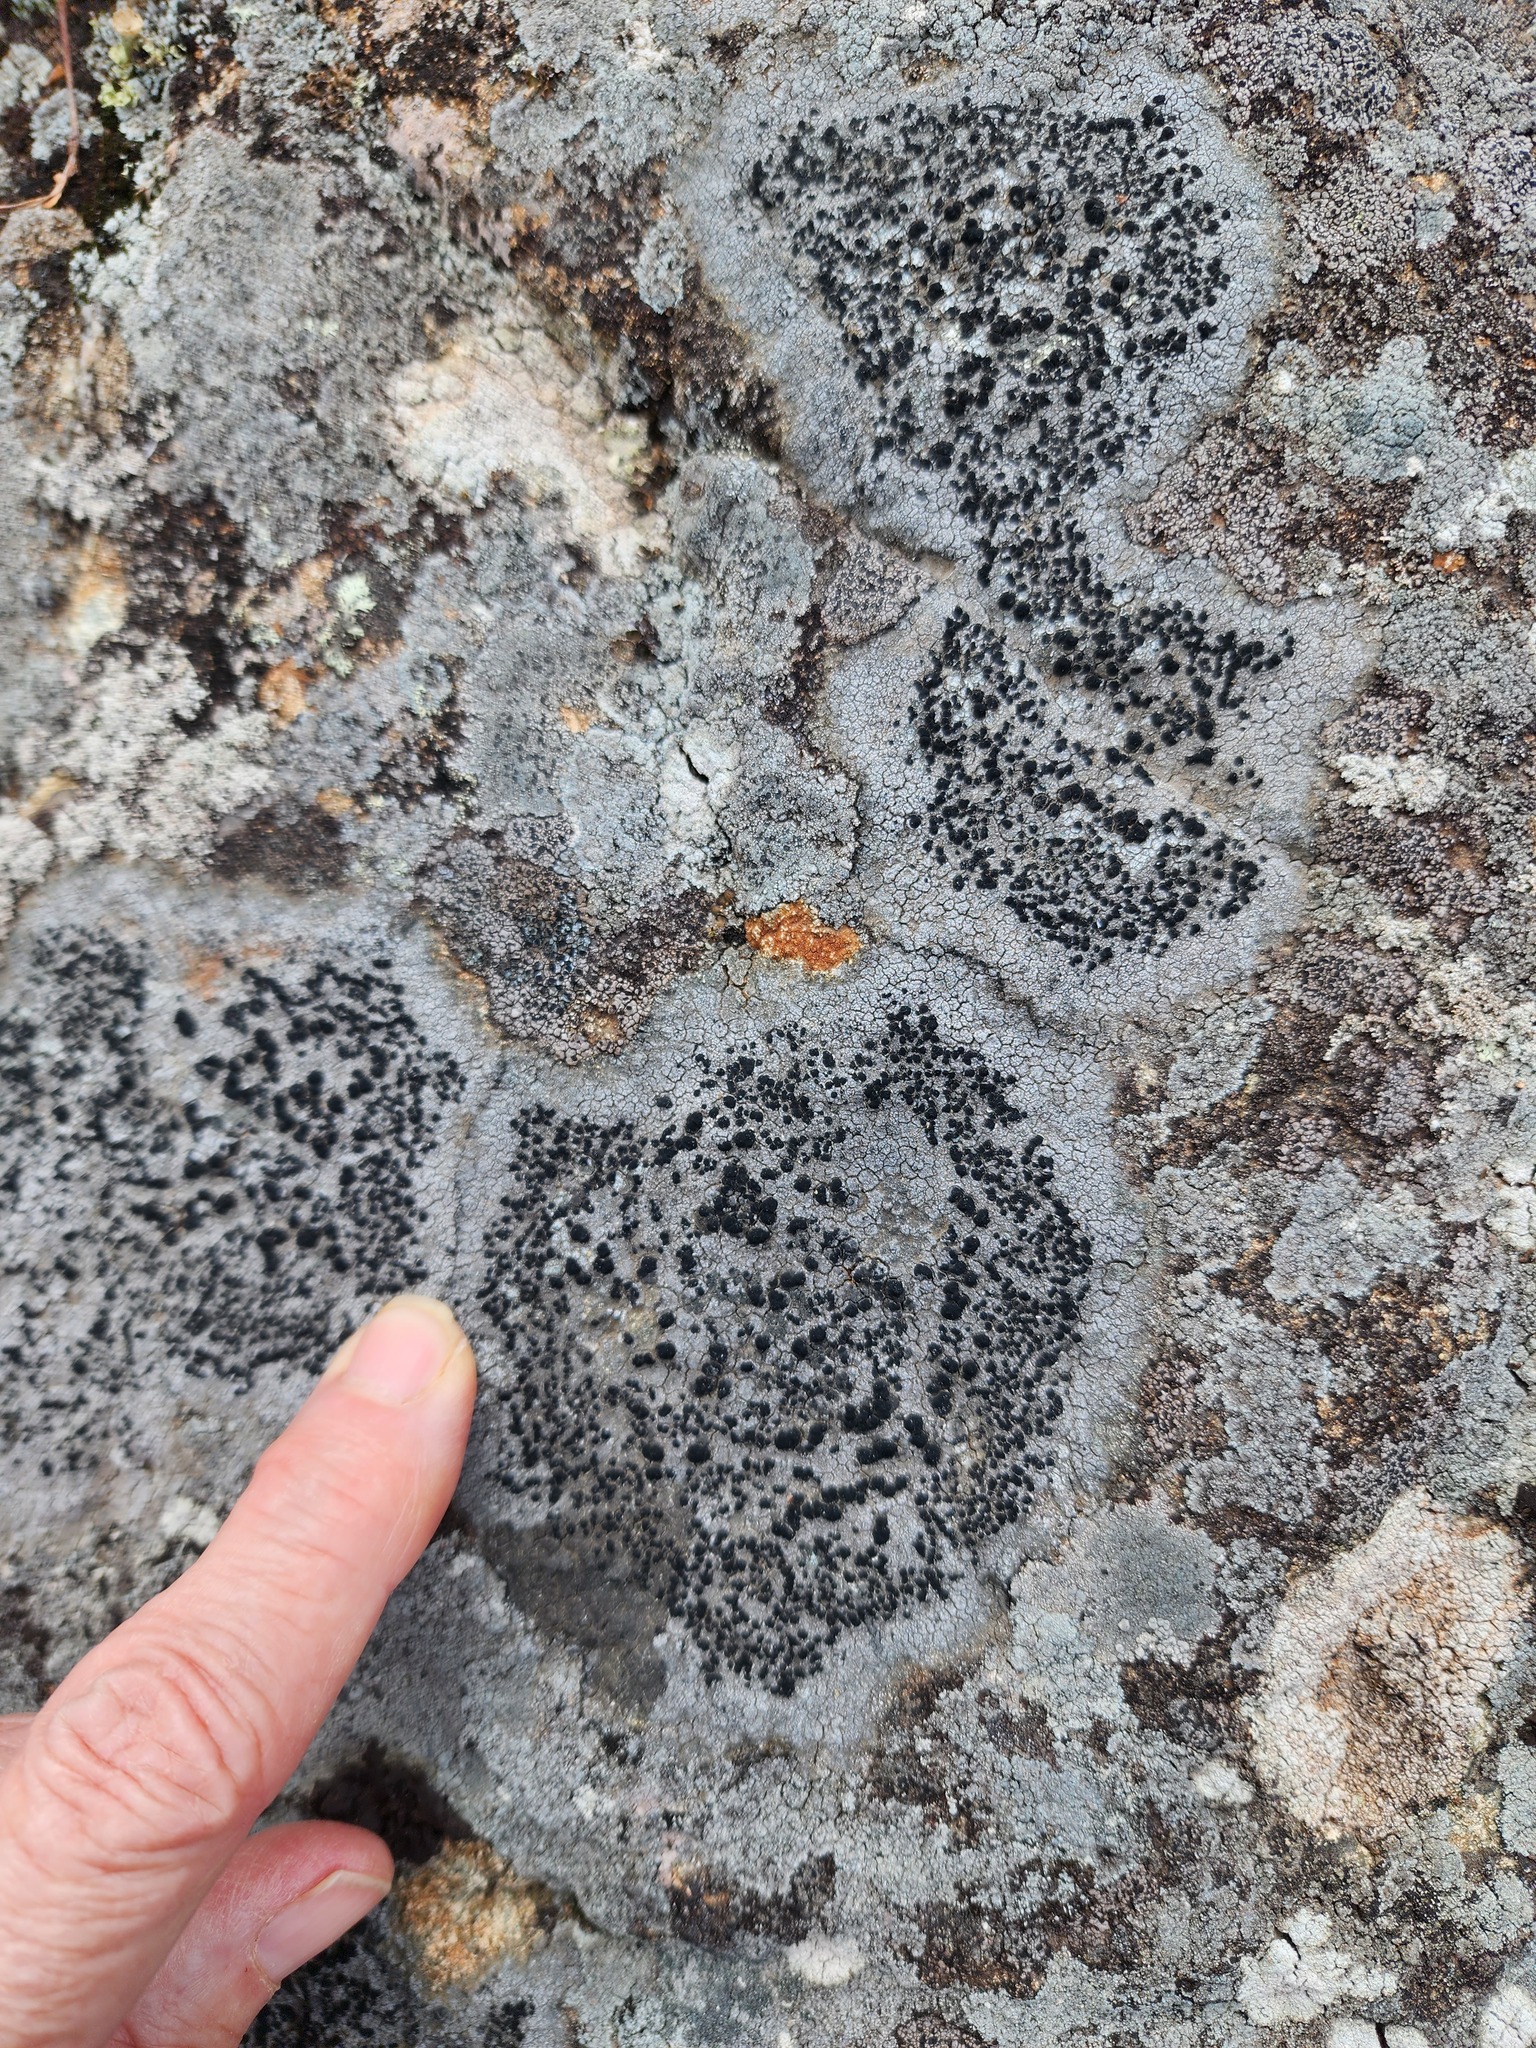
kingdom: Fungi
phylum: Ascomycota
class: Lecanoromycetes
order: Lecanorales
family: Tephromelataceae
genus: Tephromela
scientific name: Tephromela atra
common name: Black shields
